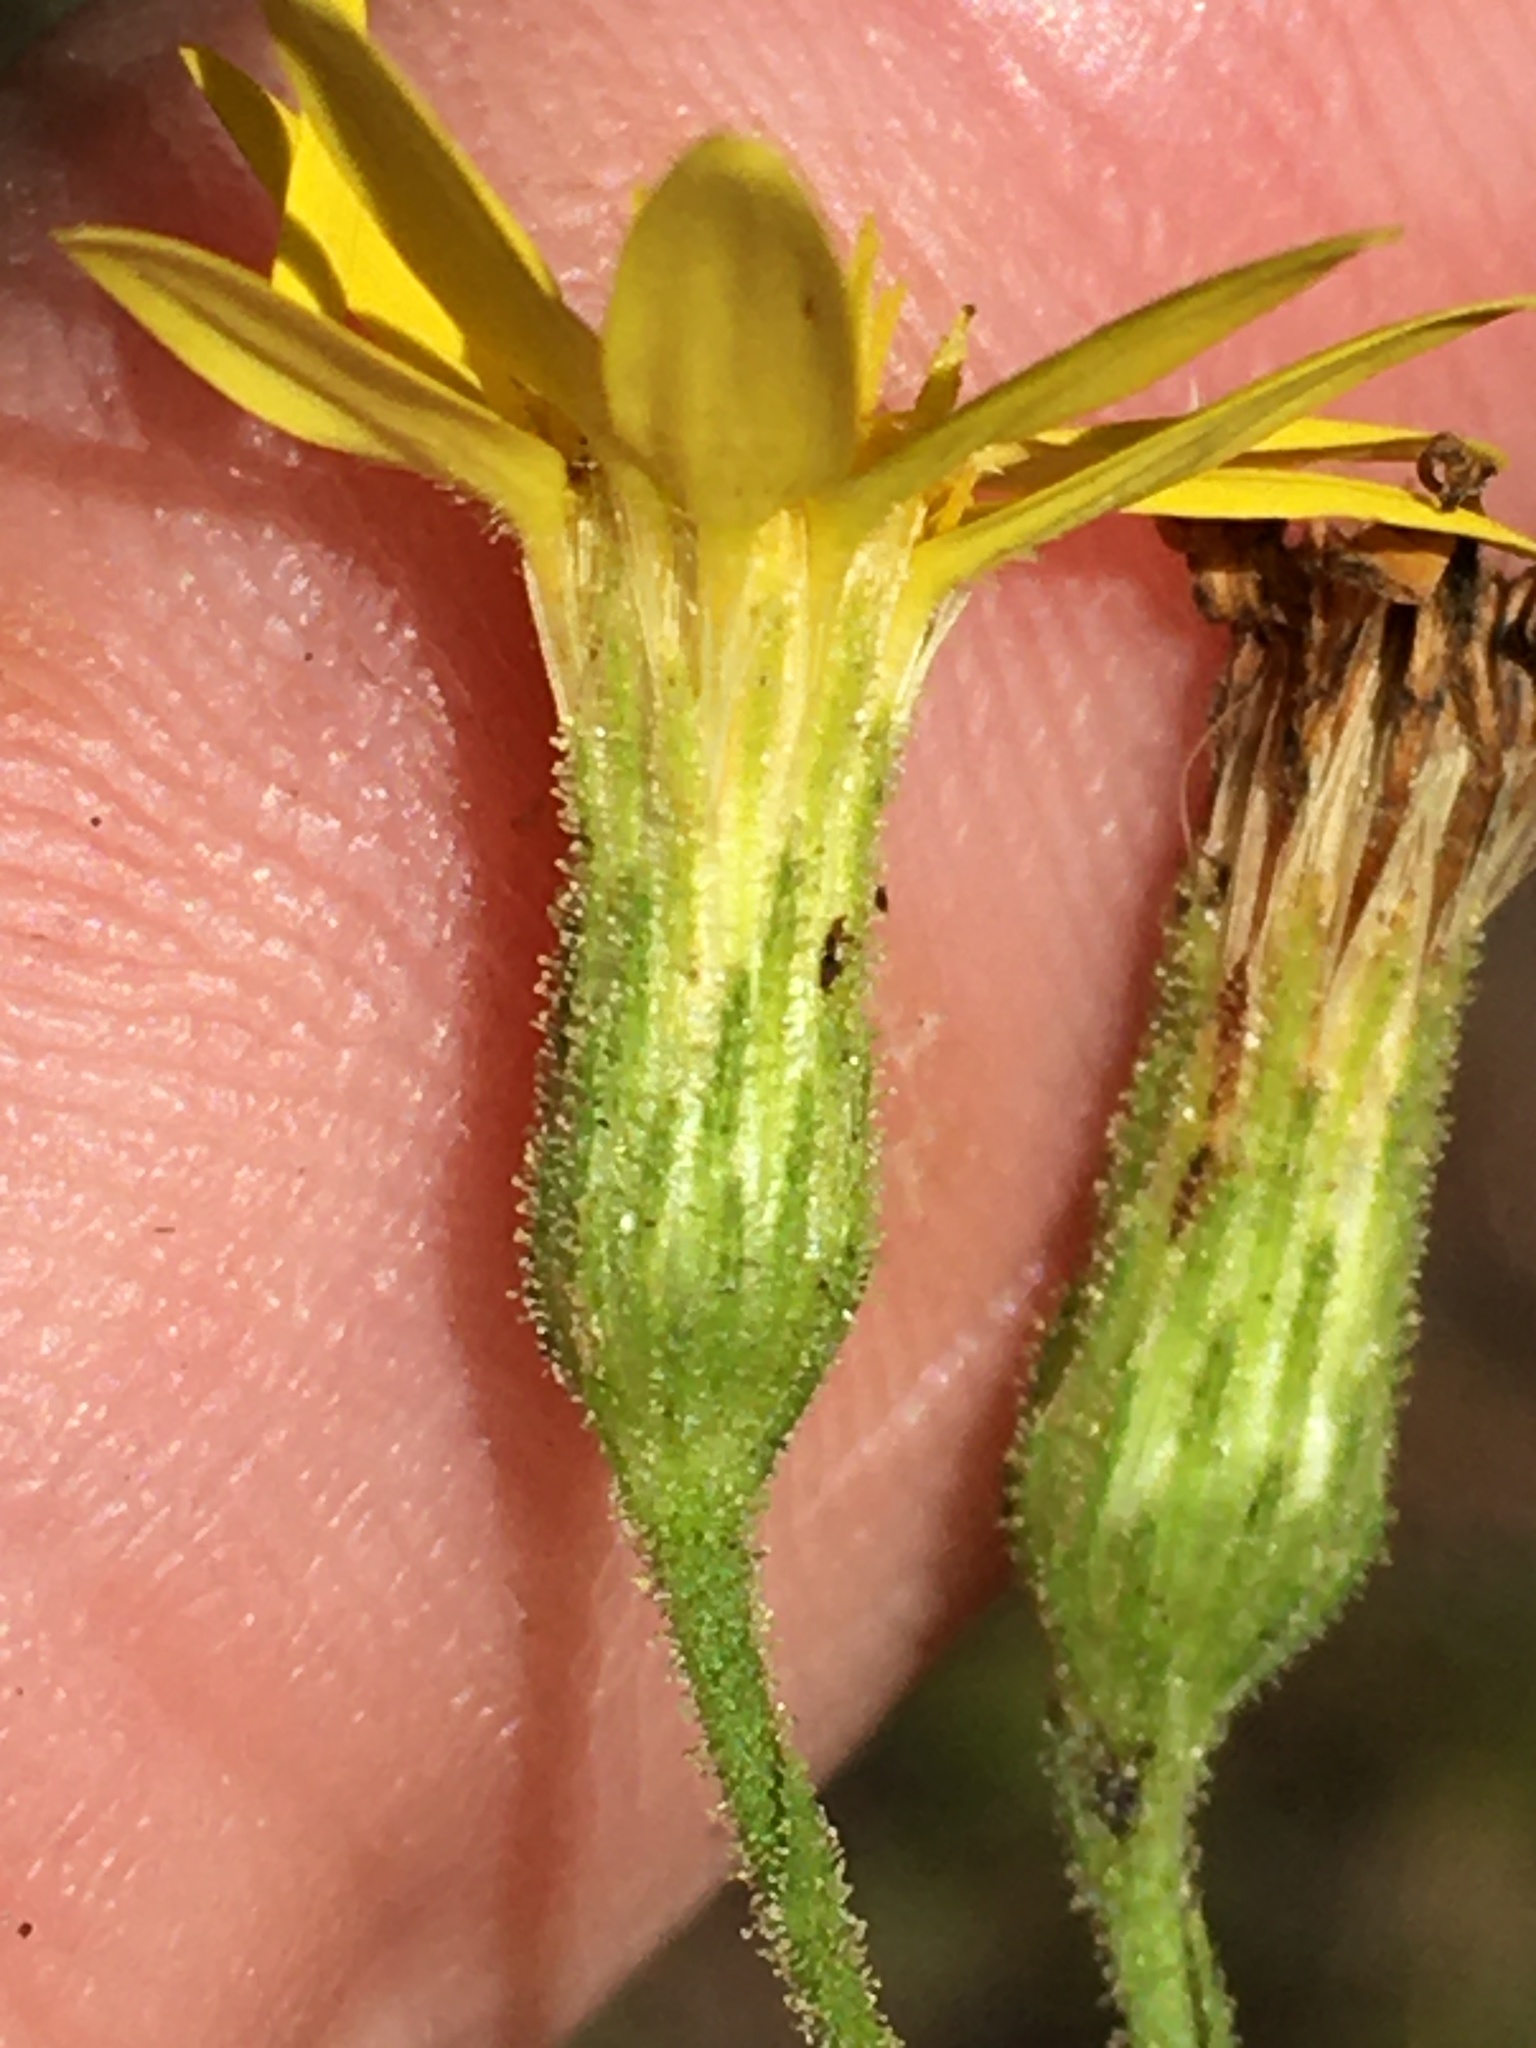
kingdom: Plantae
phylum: Tracheophyta
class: Magnoliopsida
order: Asterales
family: Asteraceae
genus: Pityopsis
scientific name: Pityopsis aspera
